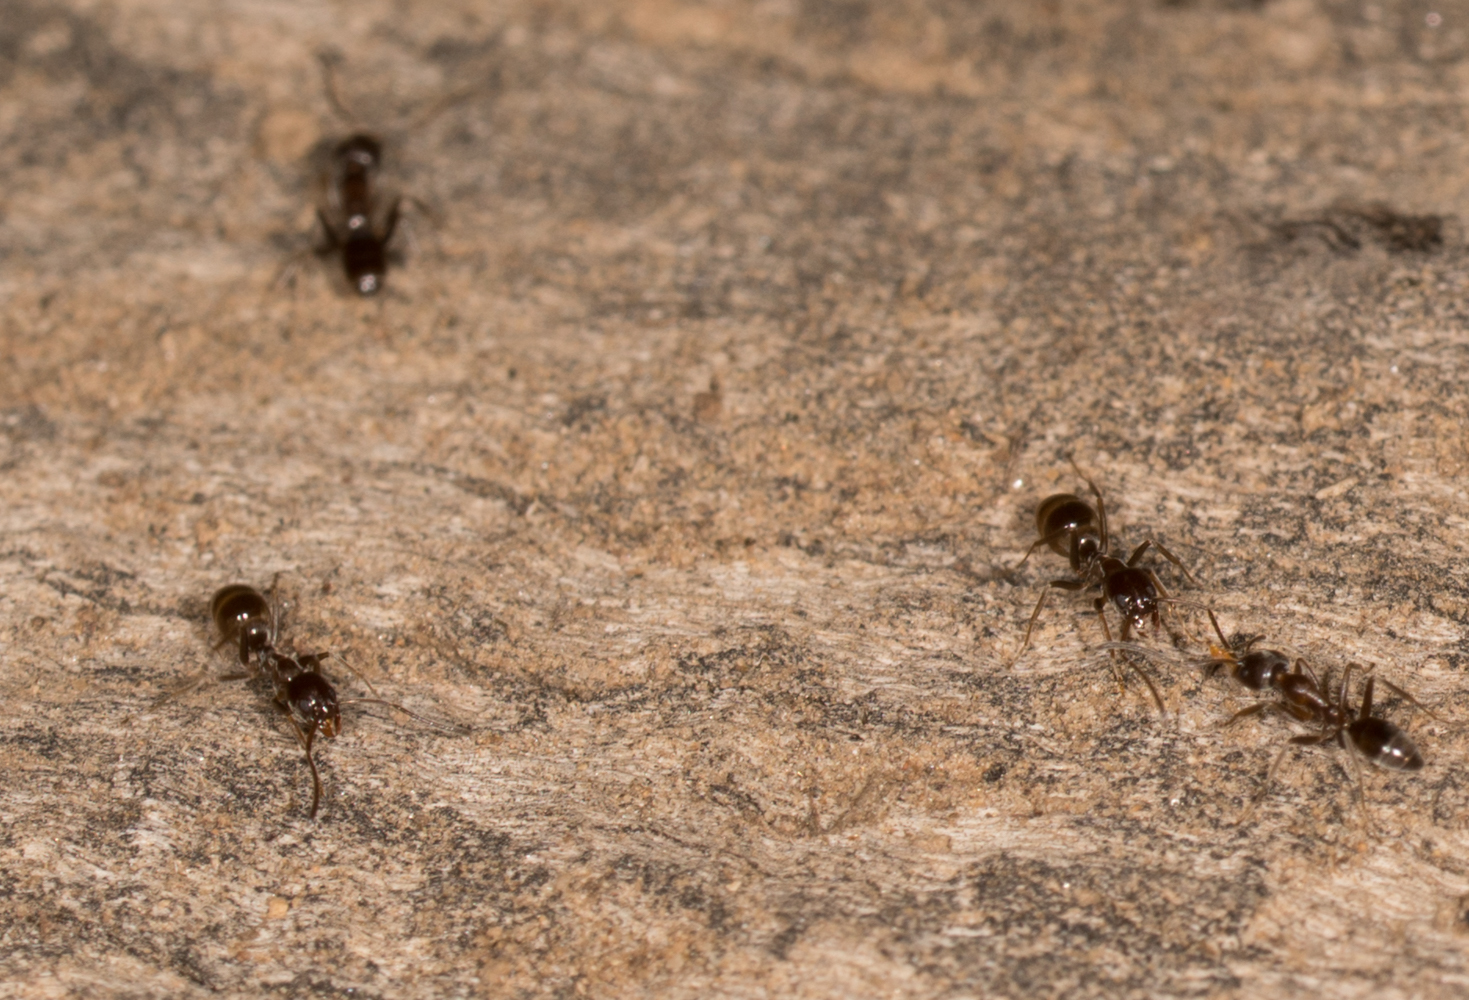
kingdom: Animalia
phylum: Arthropoda
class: Insecta
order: Hymenoptera
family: Formicidae
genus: Linepithema
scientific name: Linepithema humile
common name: Argentine ant
